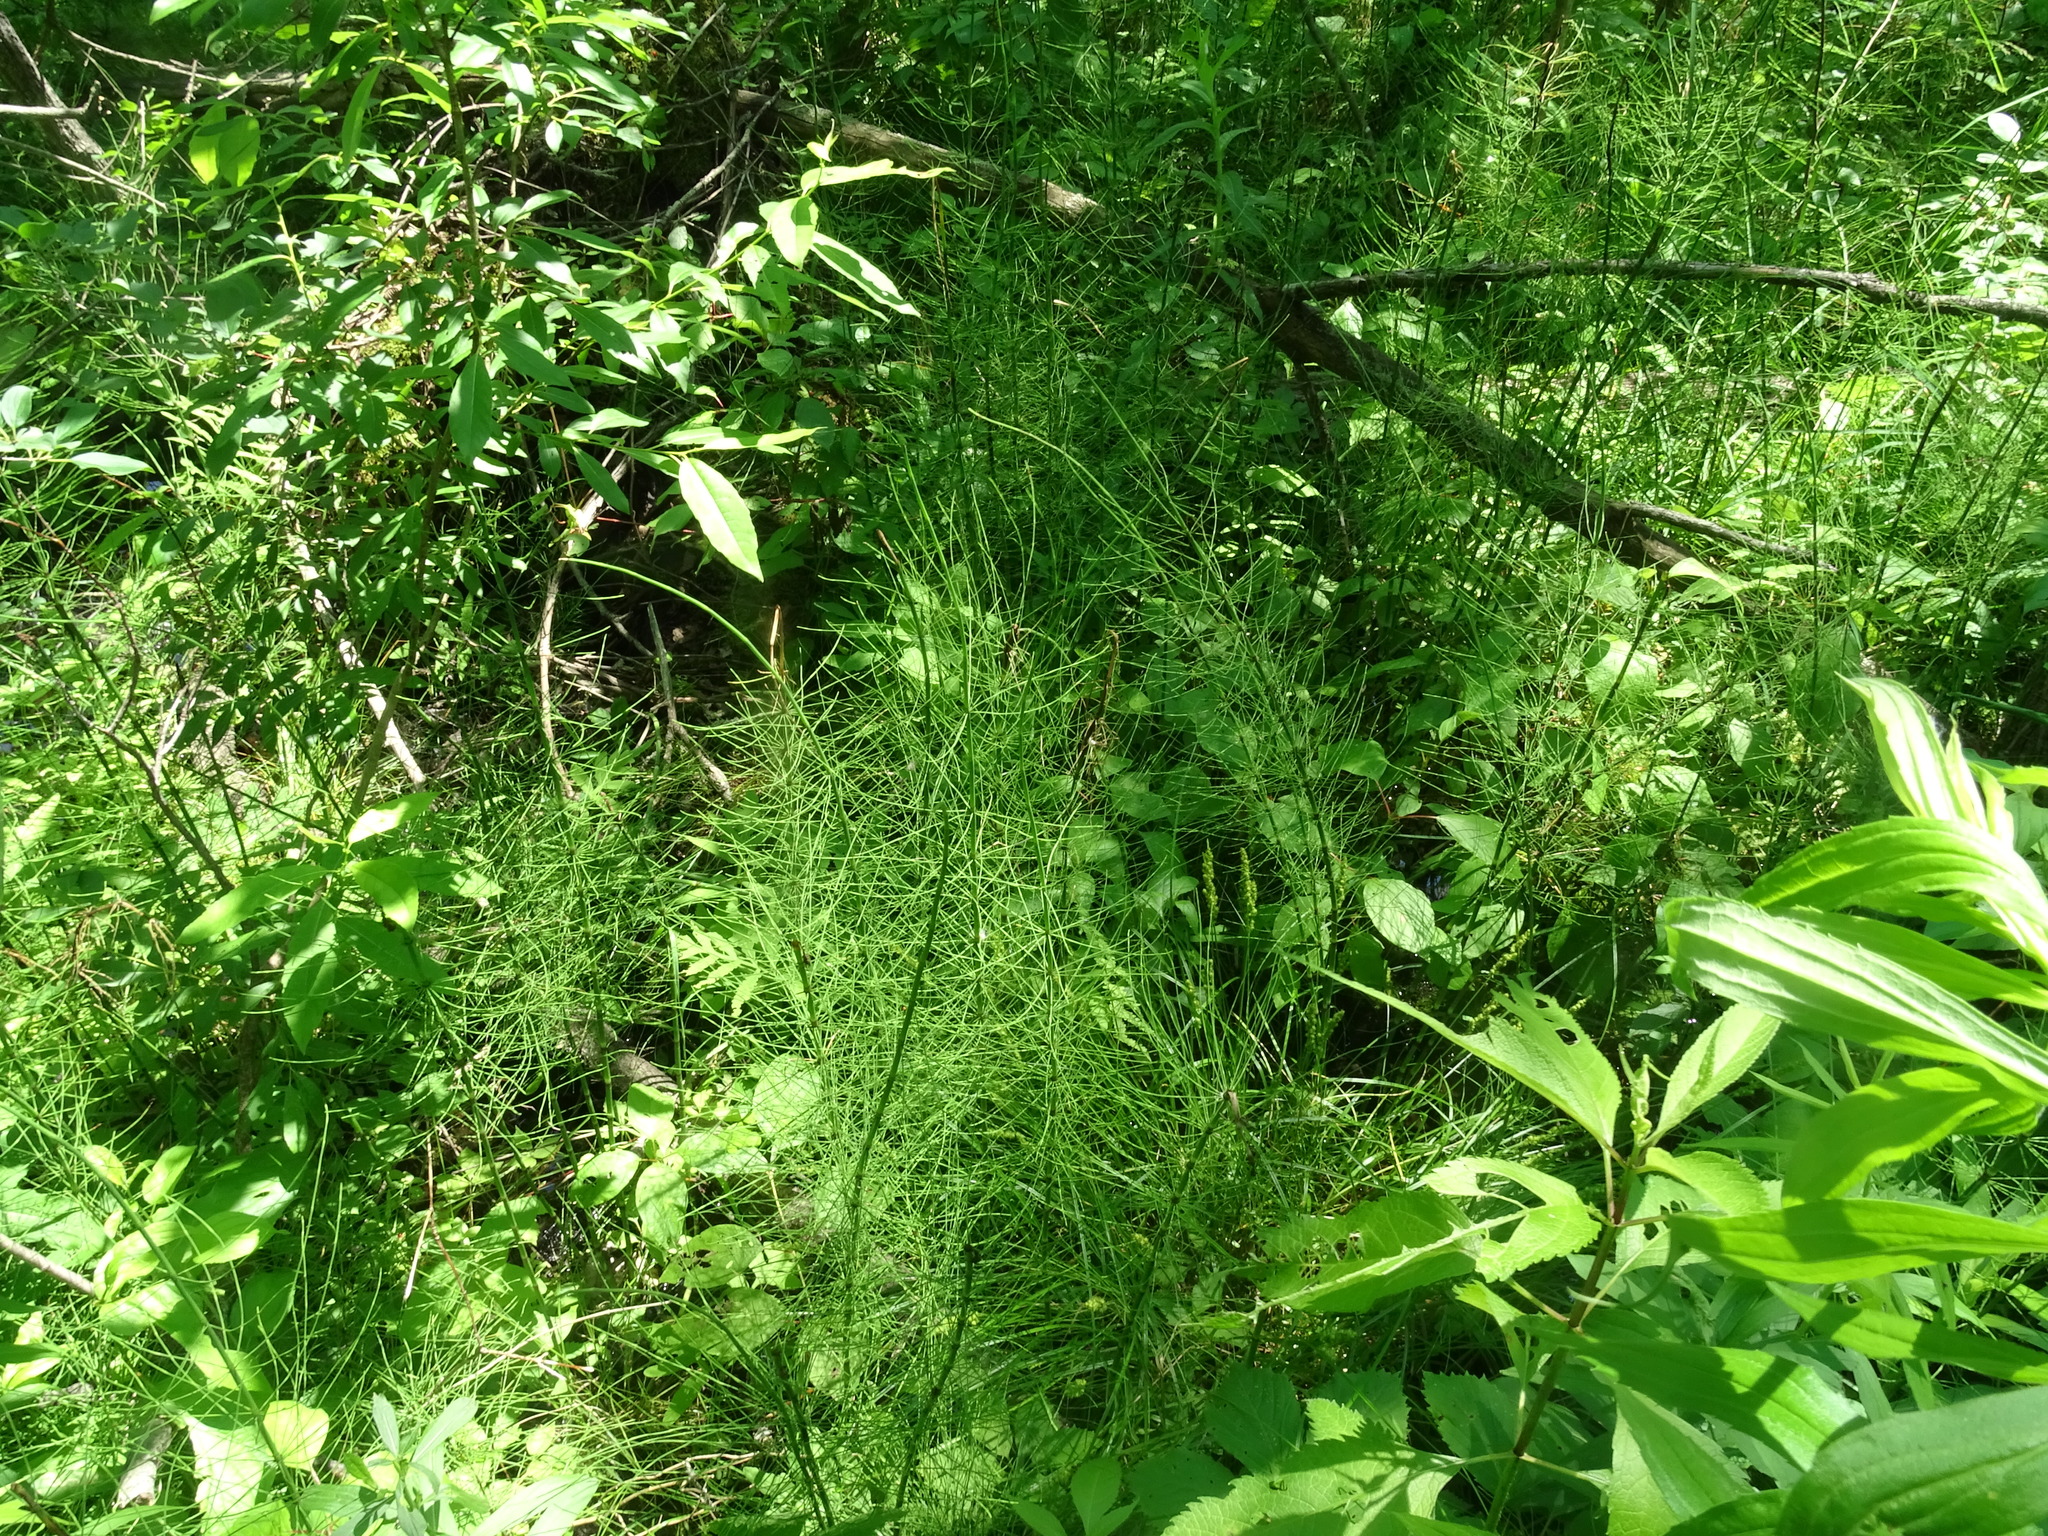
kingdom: Plantae
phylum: Tracheophyta
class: Polypodiopsida
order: Equisetales
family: Equisetaceae
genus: Equisetum
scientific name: Equisetum fluviatile
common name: Water horsetail
